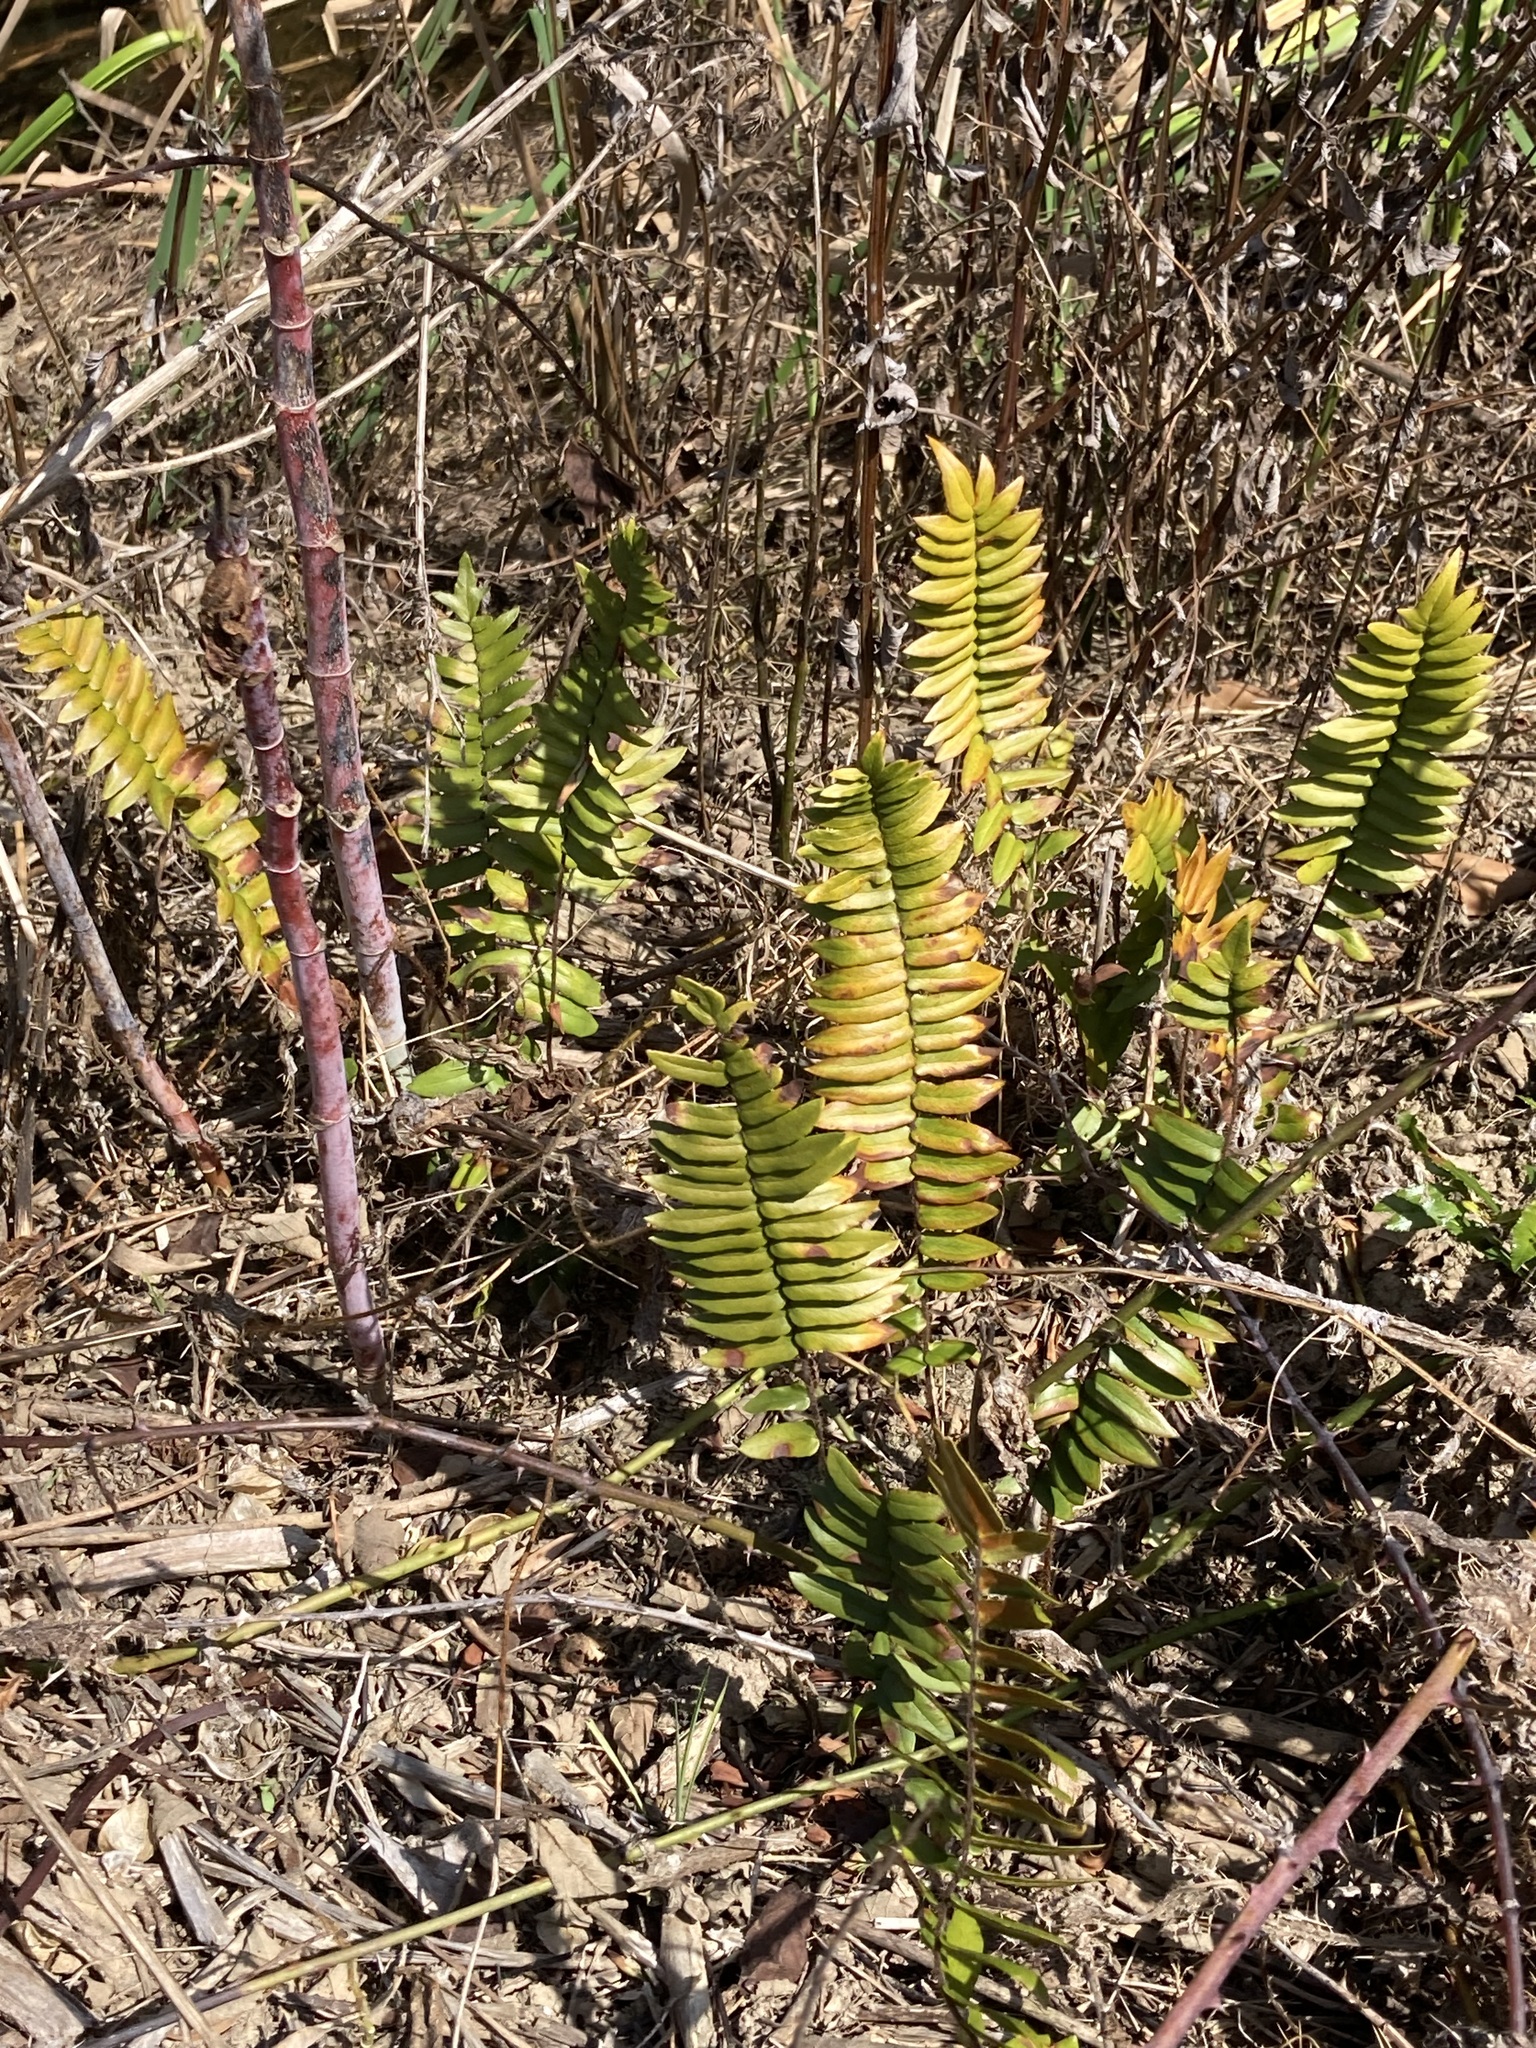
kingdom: Plantae
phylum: Tracheophyta
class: Polypodiopsida
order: Polypodiales
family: Pteridaceae
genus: Pellaea
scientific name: Pellaea falcata
